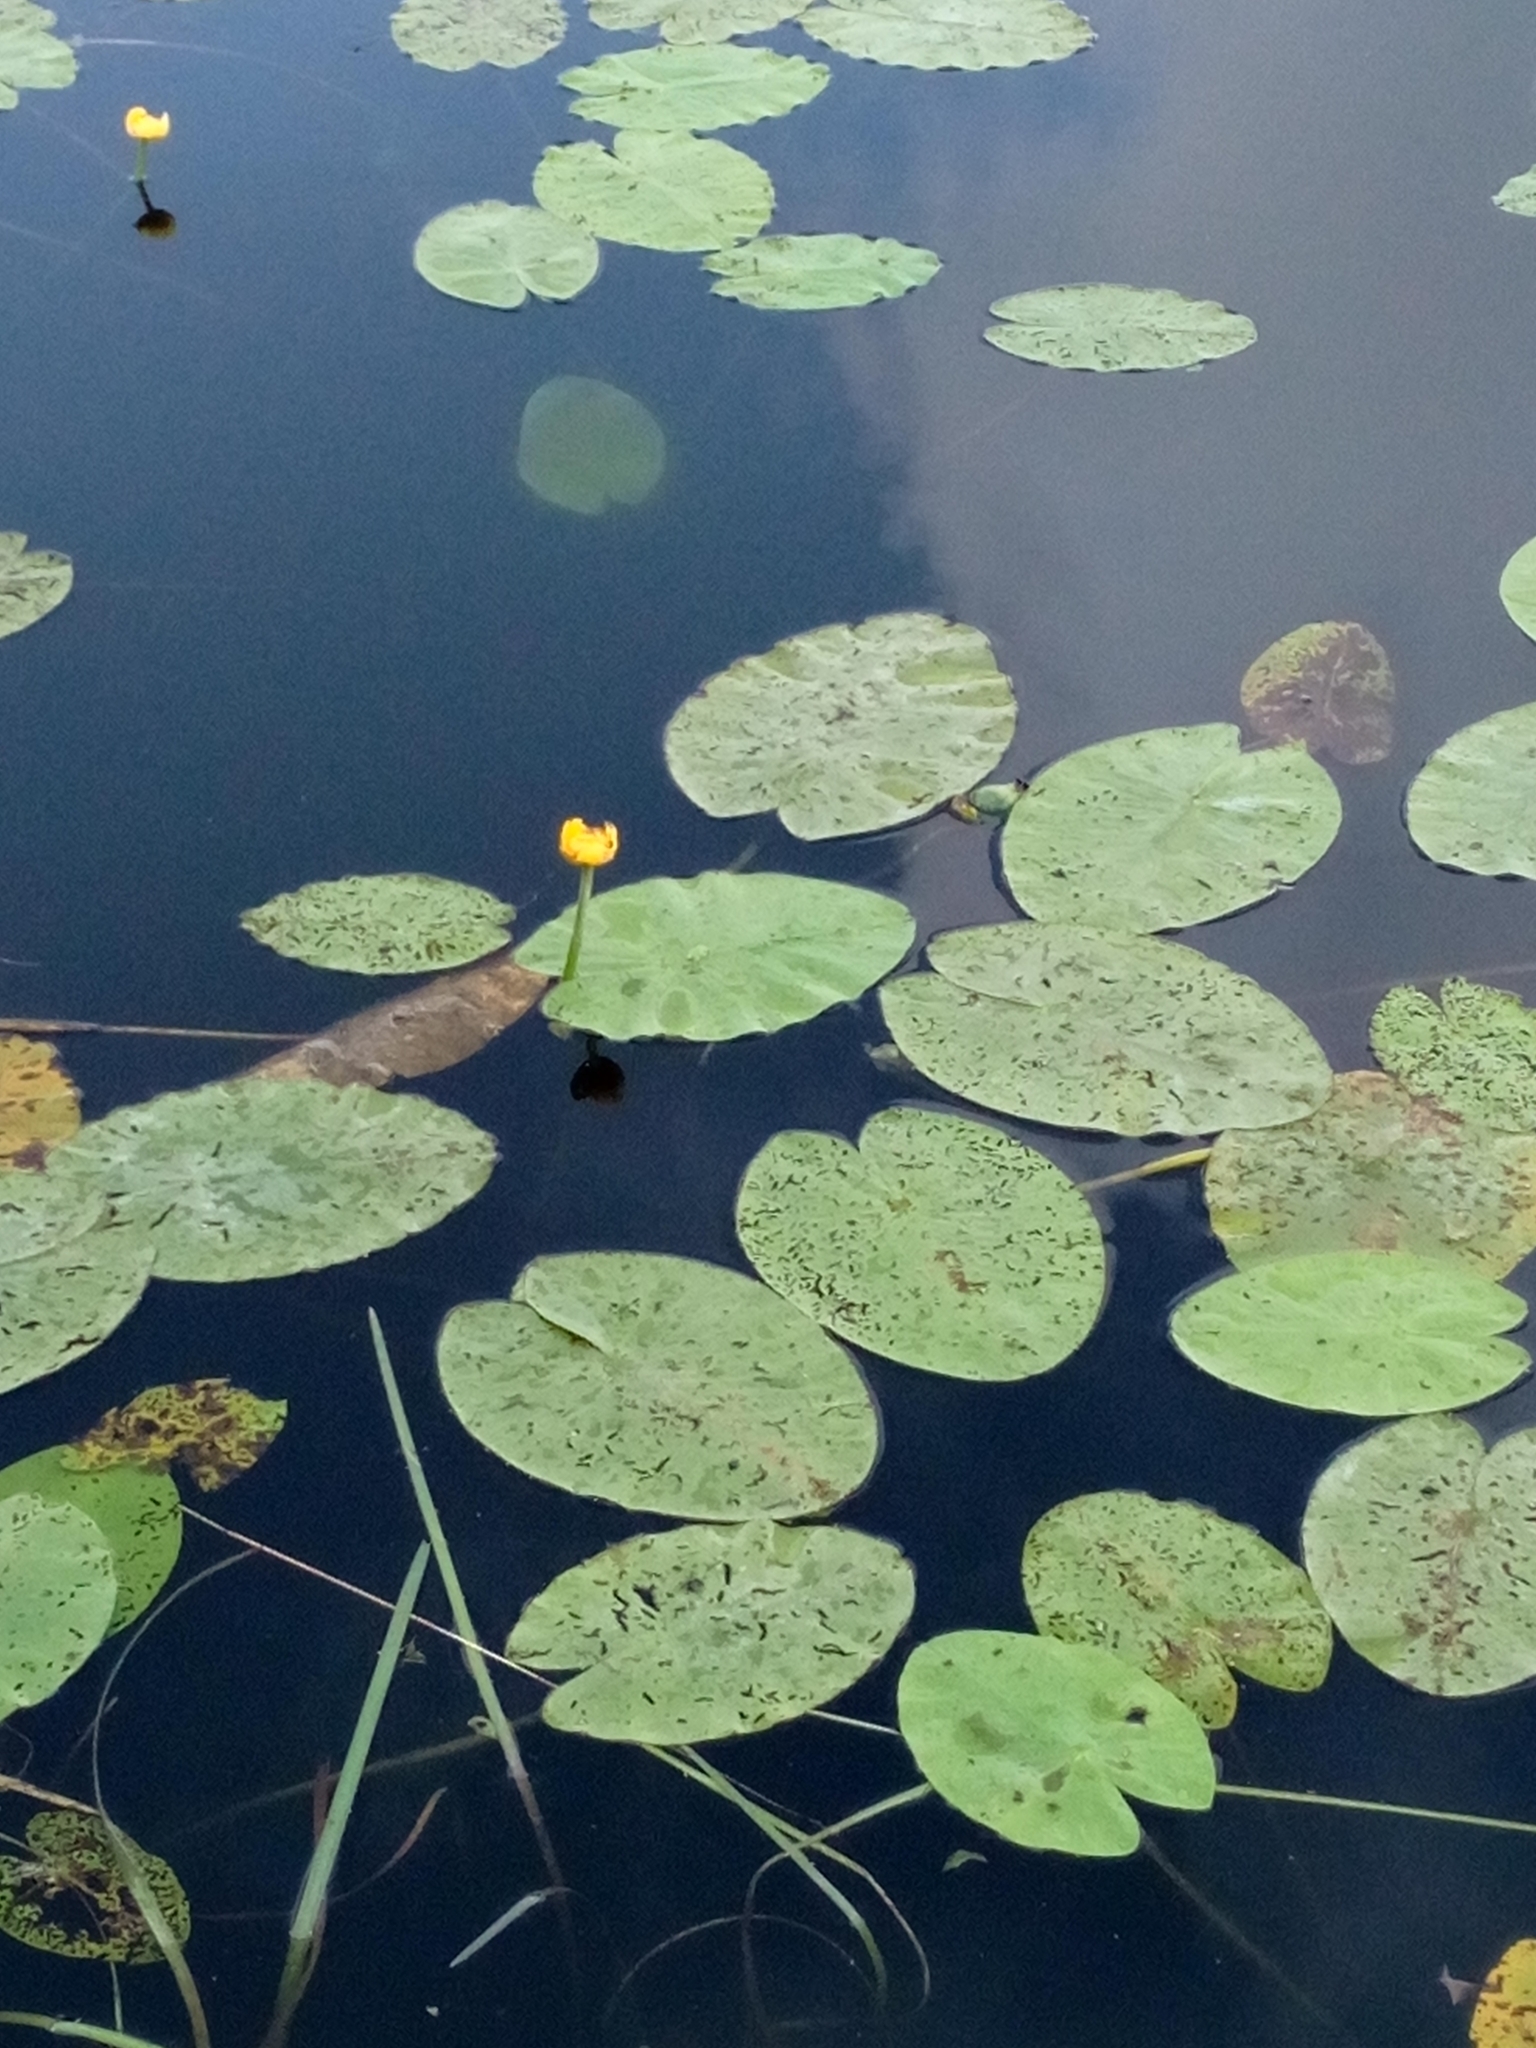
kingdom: Plantae
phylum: Tracheophyta
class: Magnoliopsida
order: Nymphaeales
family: Nymphaeaceae
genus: Nuphar
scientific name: Nuphar lutea
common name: Yellow water-lily
